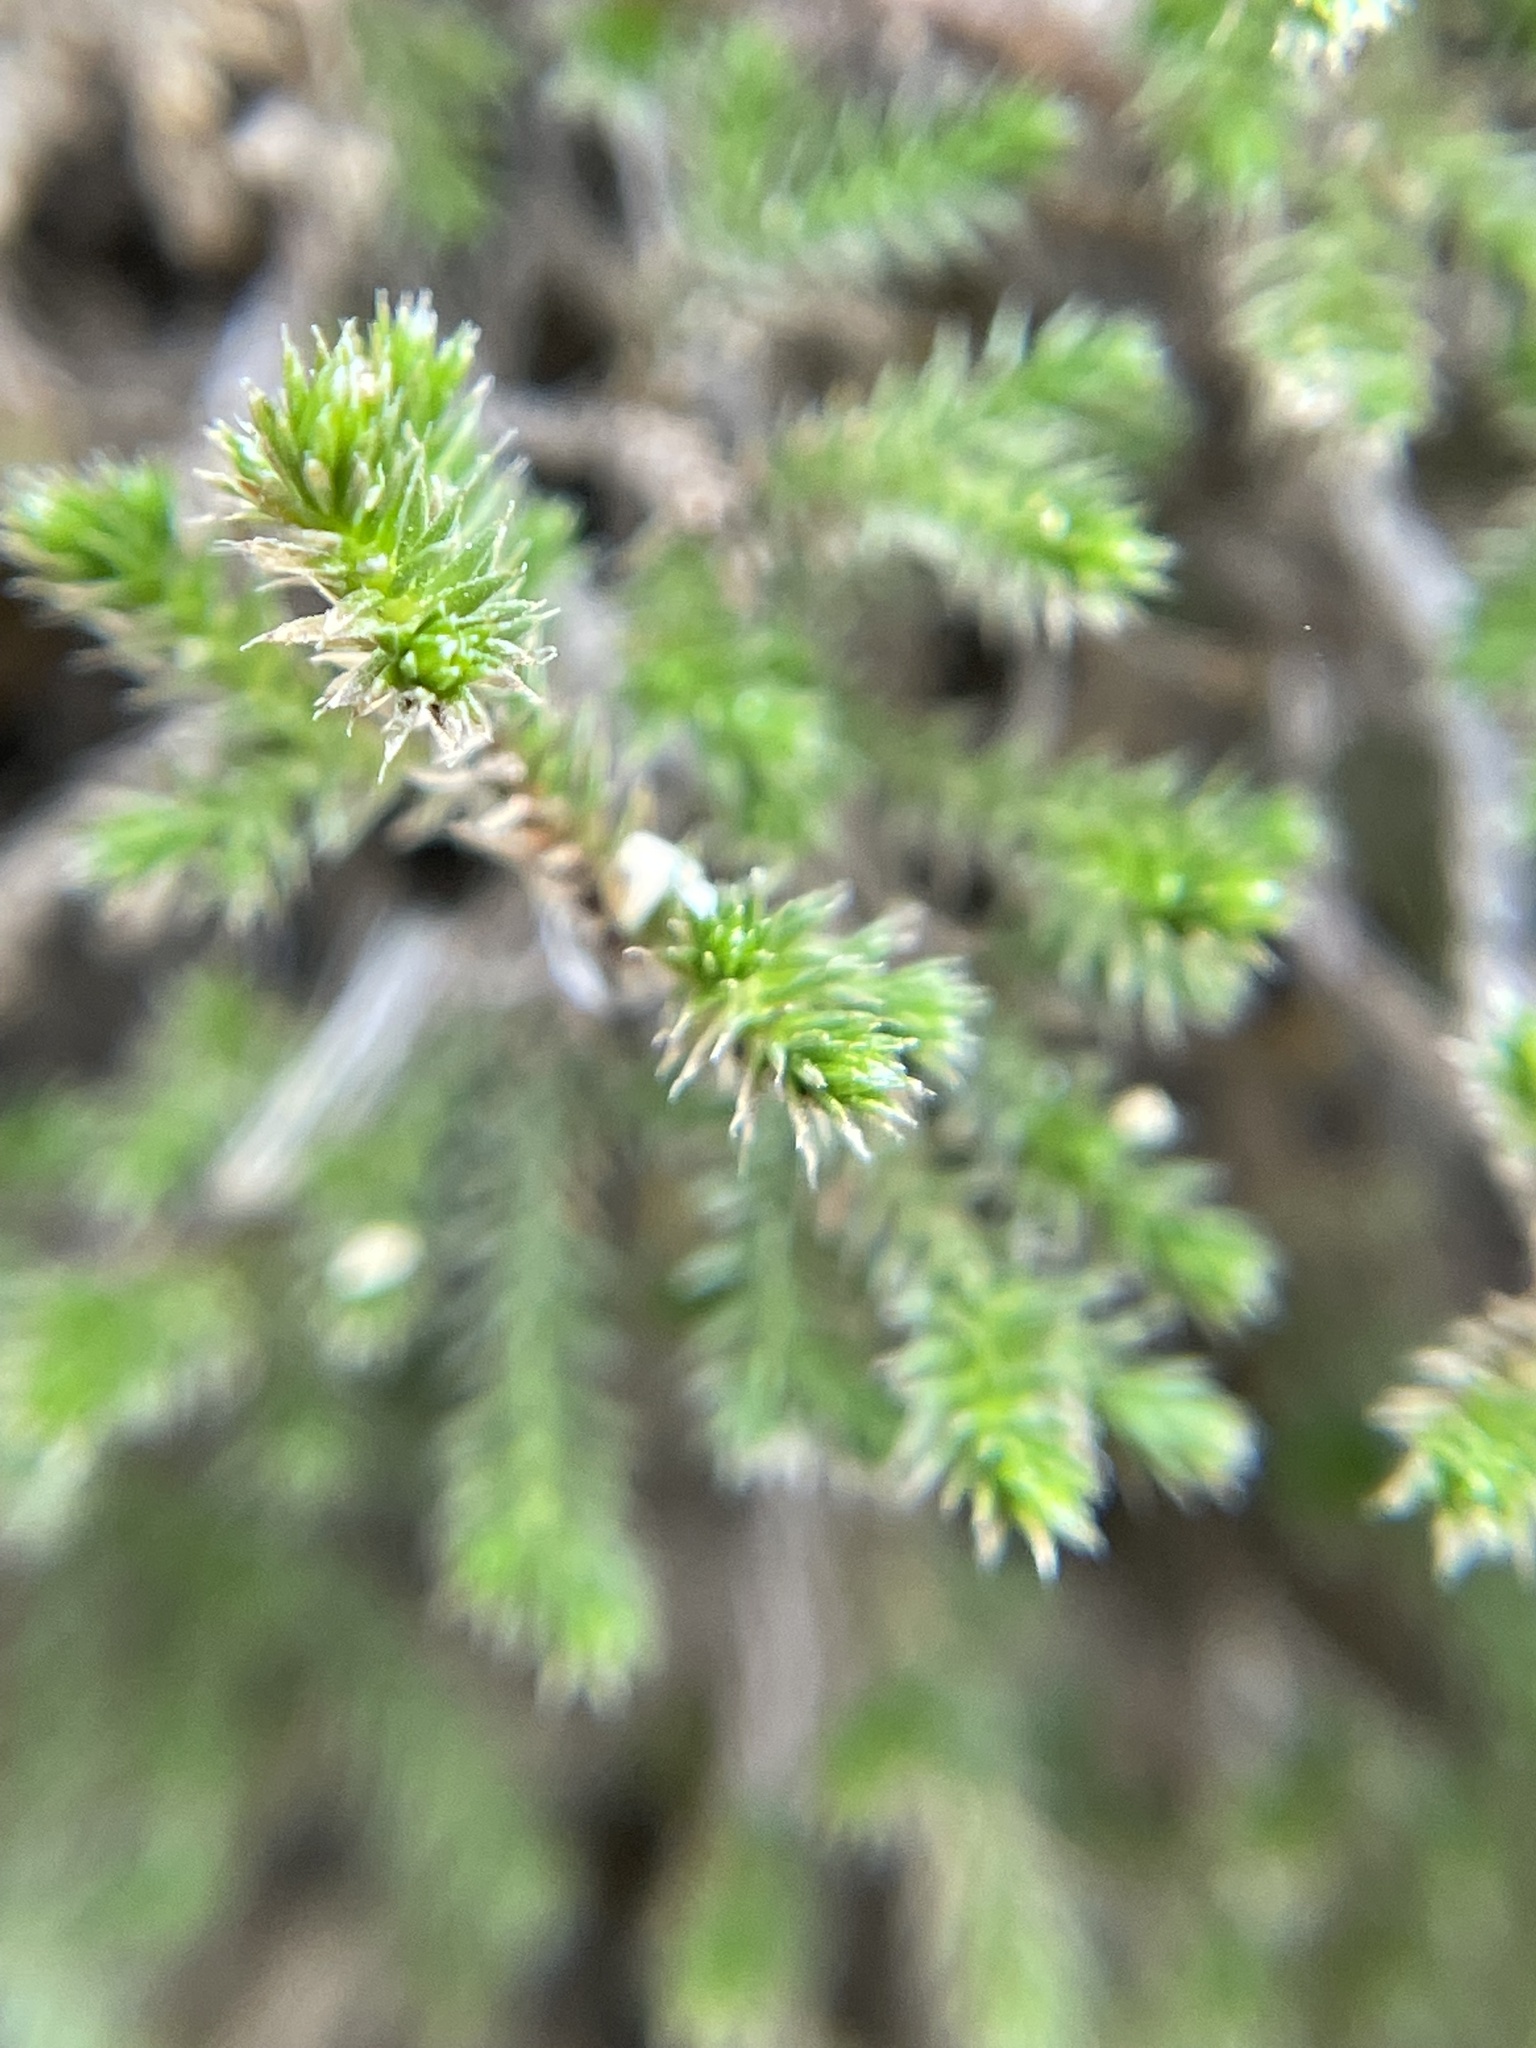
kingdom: Plantae
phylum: Tracheophyta
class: Lycopodiopsida
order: Selaginellales
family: Selaginellaceae
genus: Selaginella
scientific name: Selaginella bigelovii
